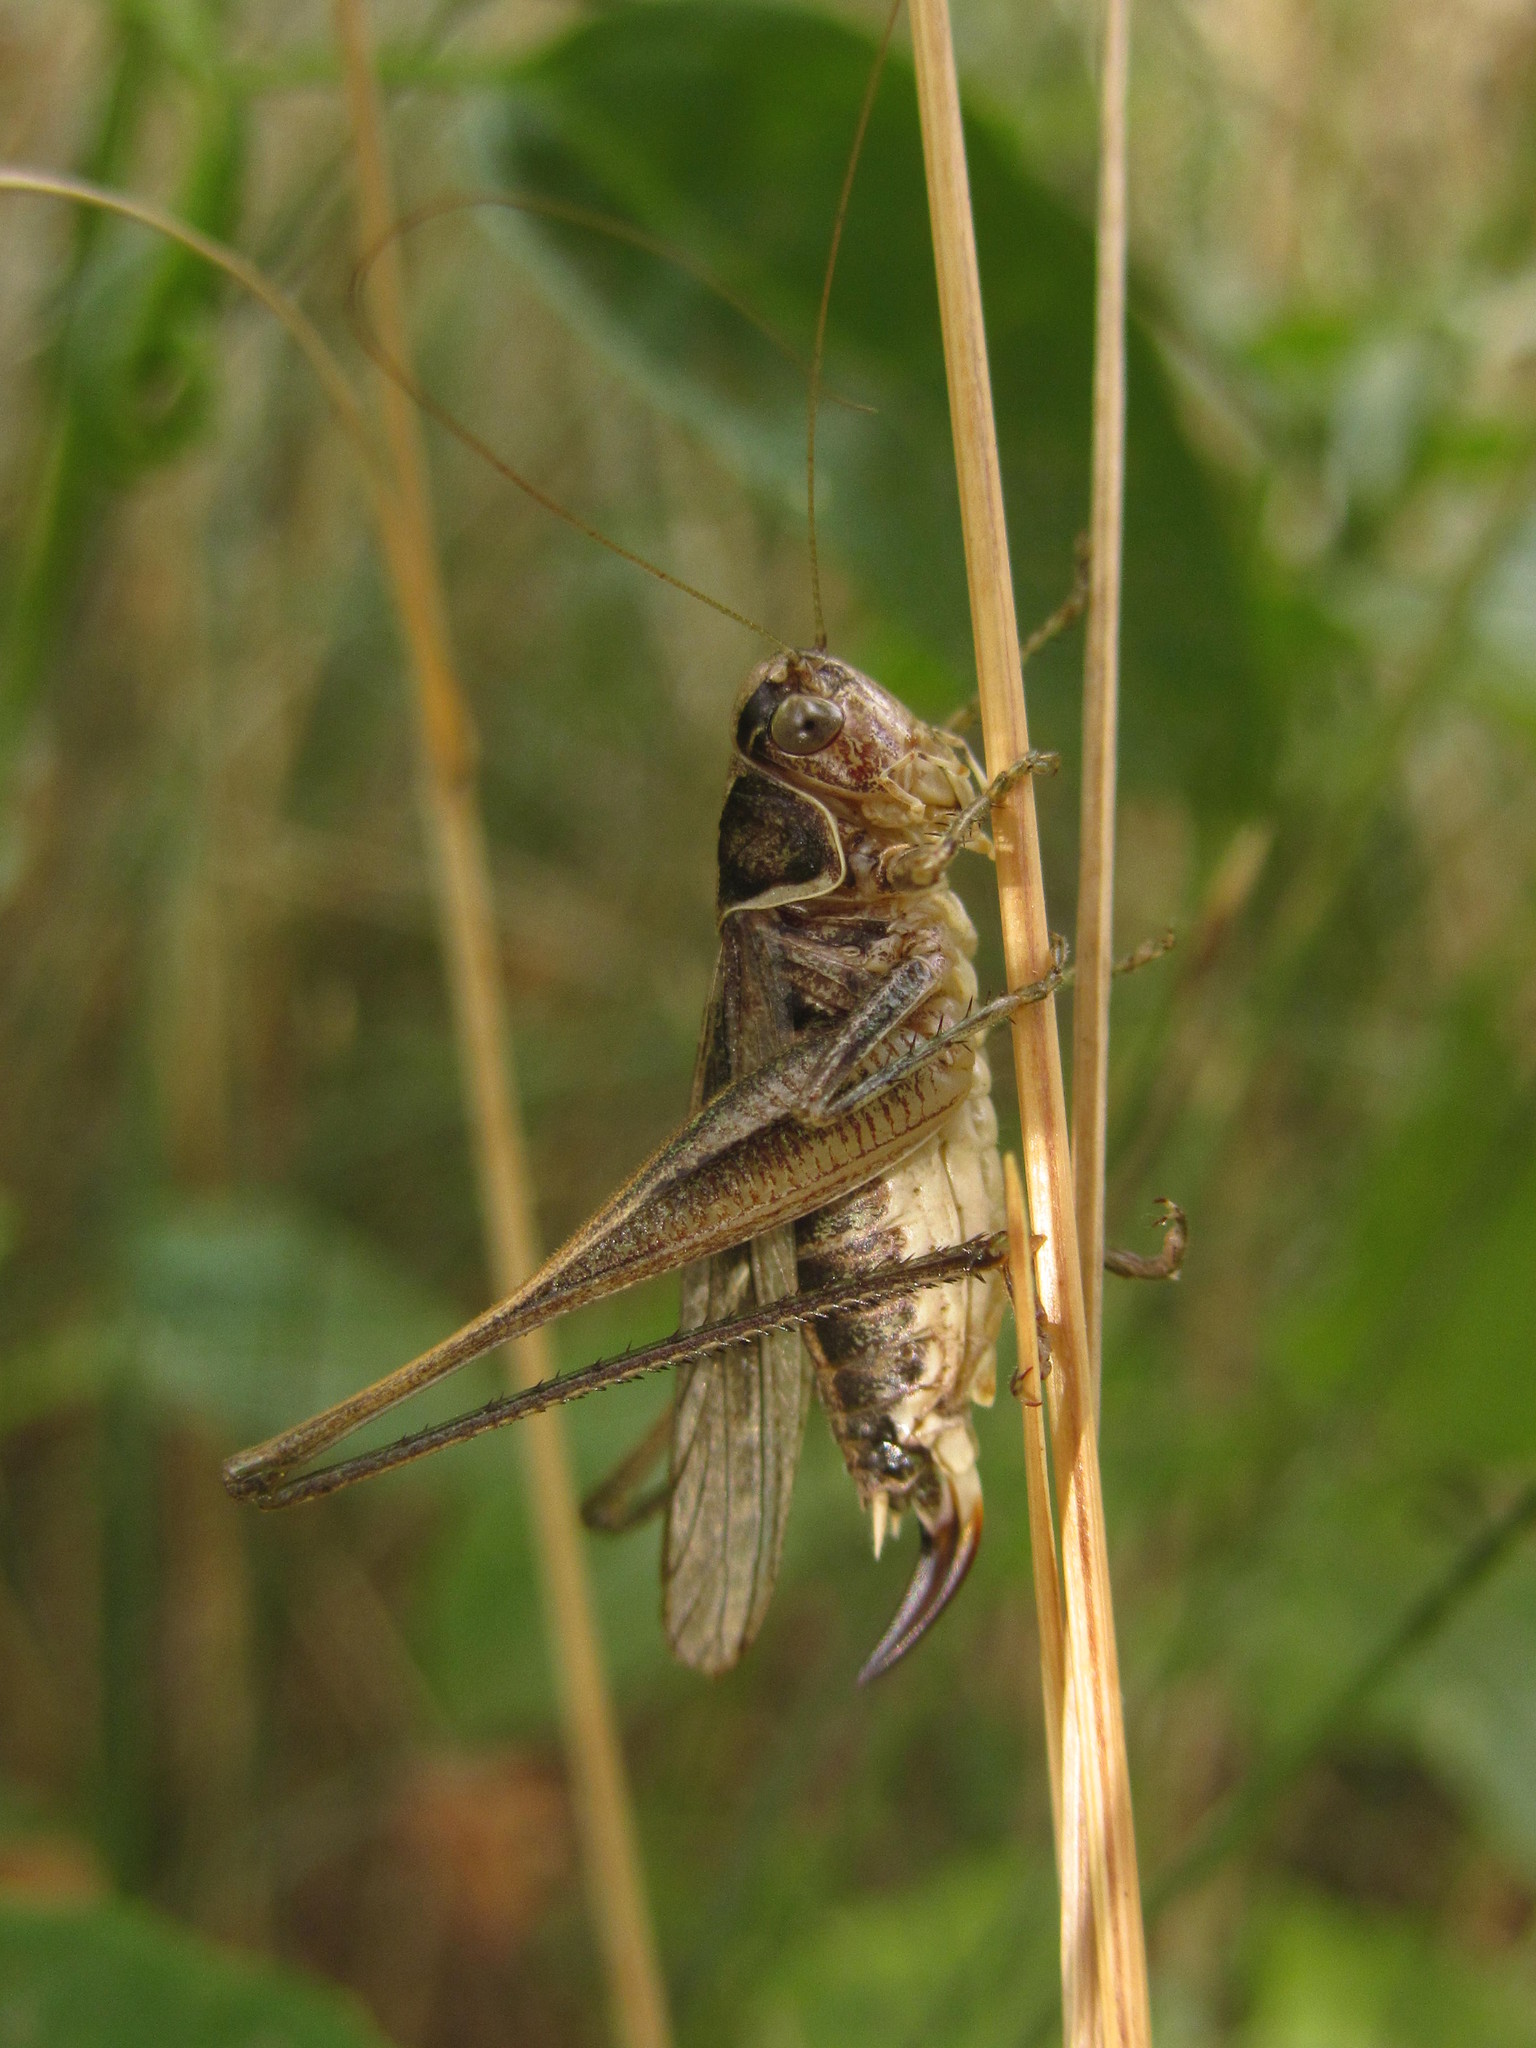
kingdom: Animalia
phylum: Arthropoda
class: Insecta
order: Orthoptera
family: Tettigoniidae
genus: Tessellana
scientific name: Tessellana tessellata
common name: Grasshopper
